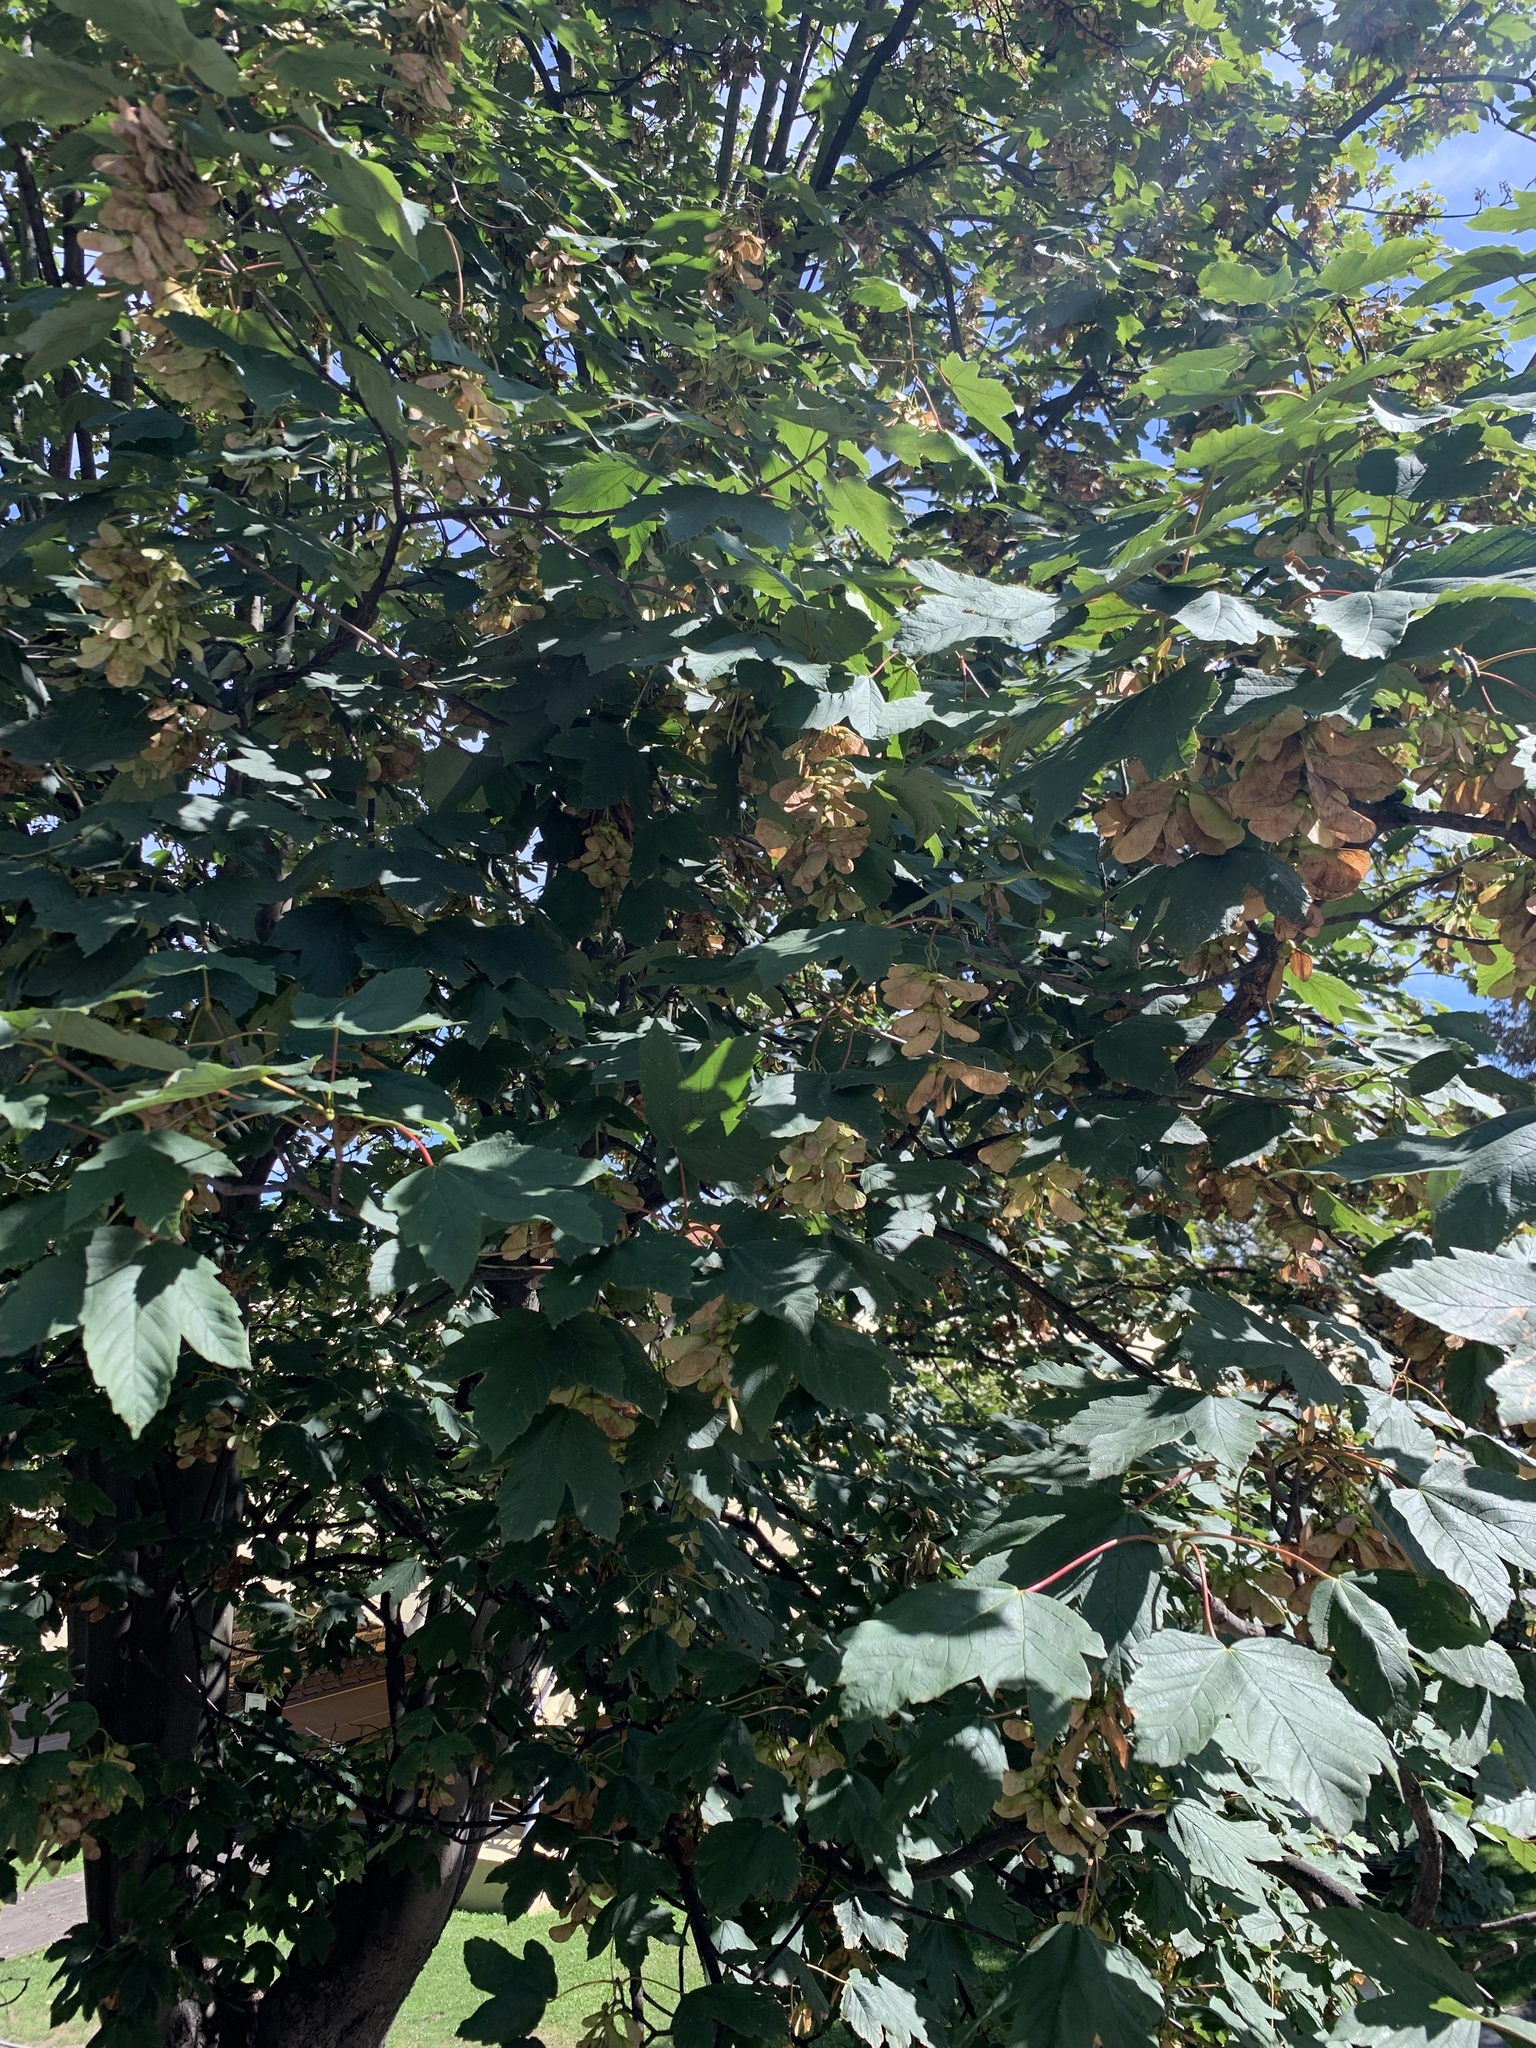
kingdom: Plantae
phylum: Tracheophyta
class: Magnoliopsida
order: Sapindales
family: Sapindaceae
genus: Acer
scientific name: Acer pseudoplatanus
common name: Sycamore
